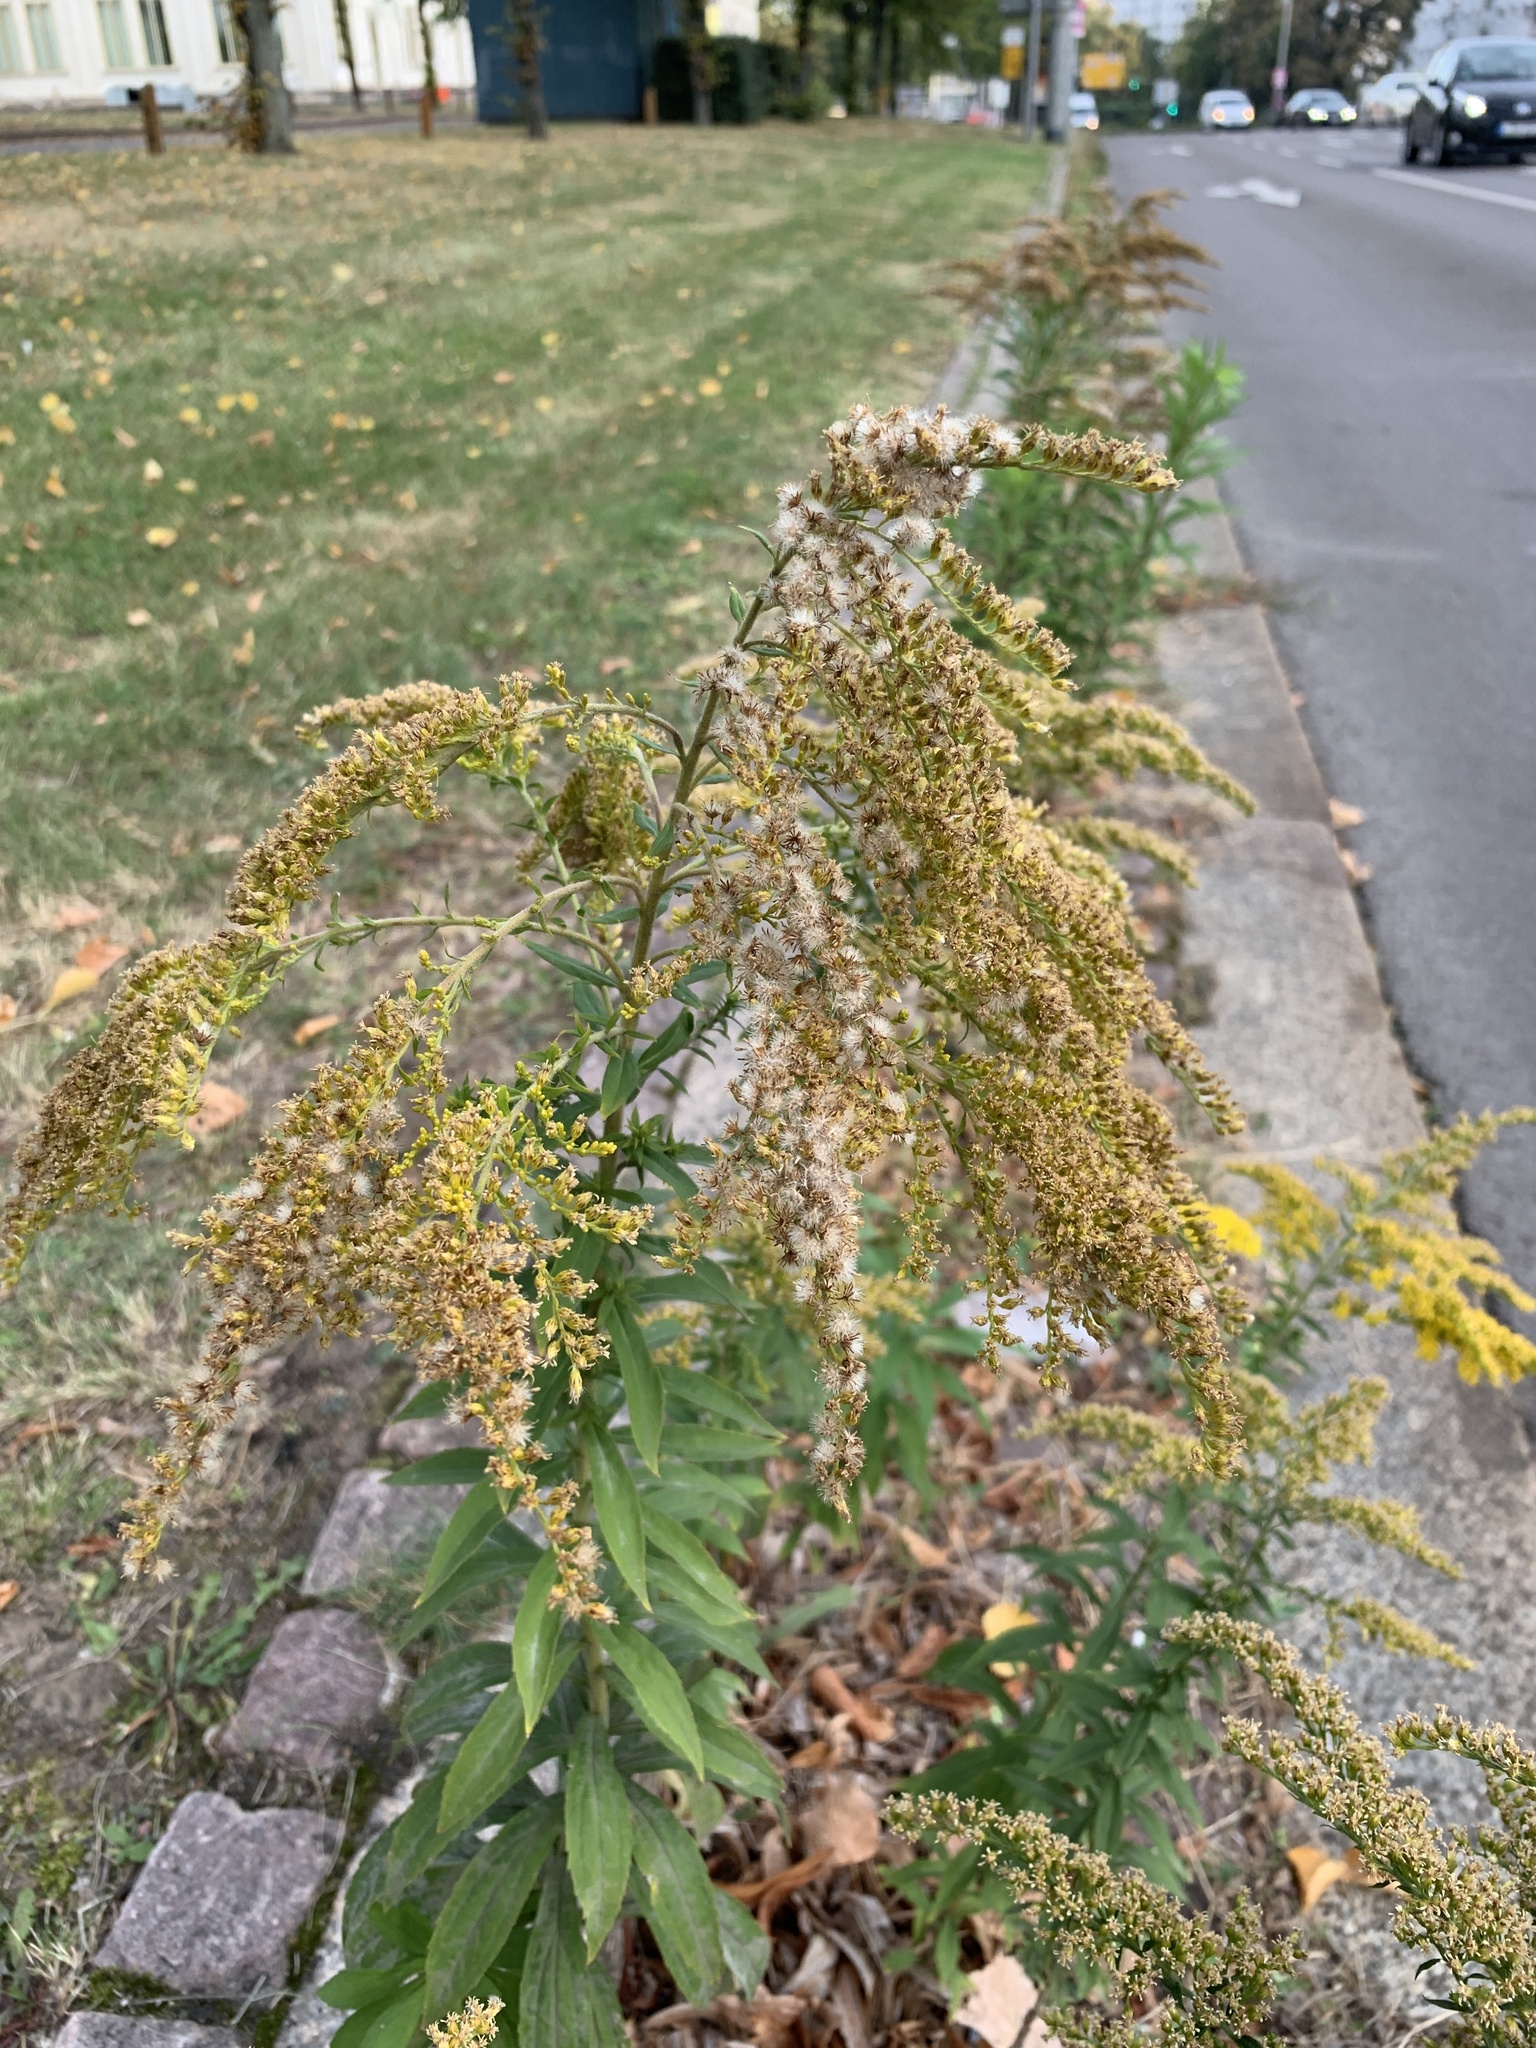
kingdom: Plantae
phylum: Tracheophyta
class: Magnoliopsida
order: Asterales
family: Asteraceae
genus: Solidago
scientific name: Solidago canadensis
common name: Canada goldenrod
